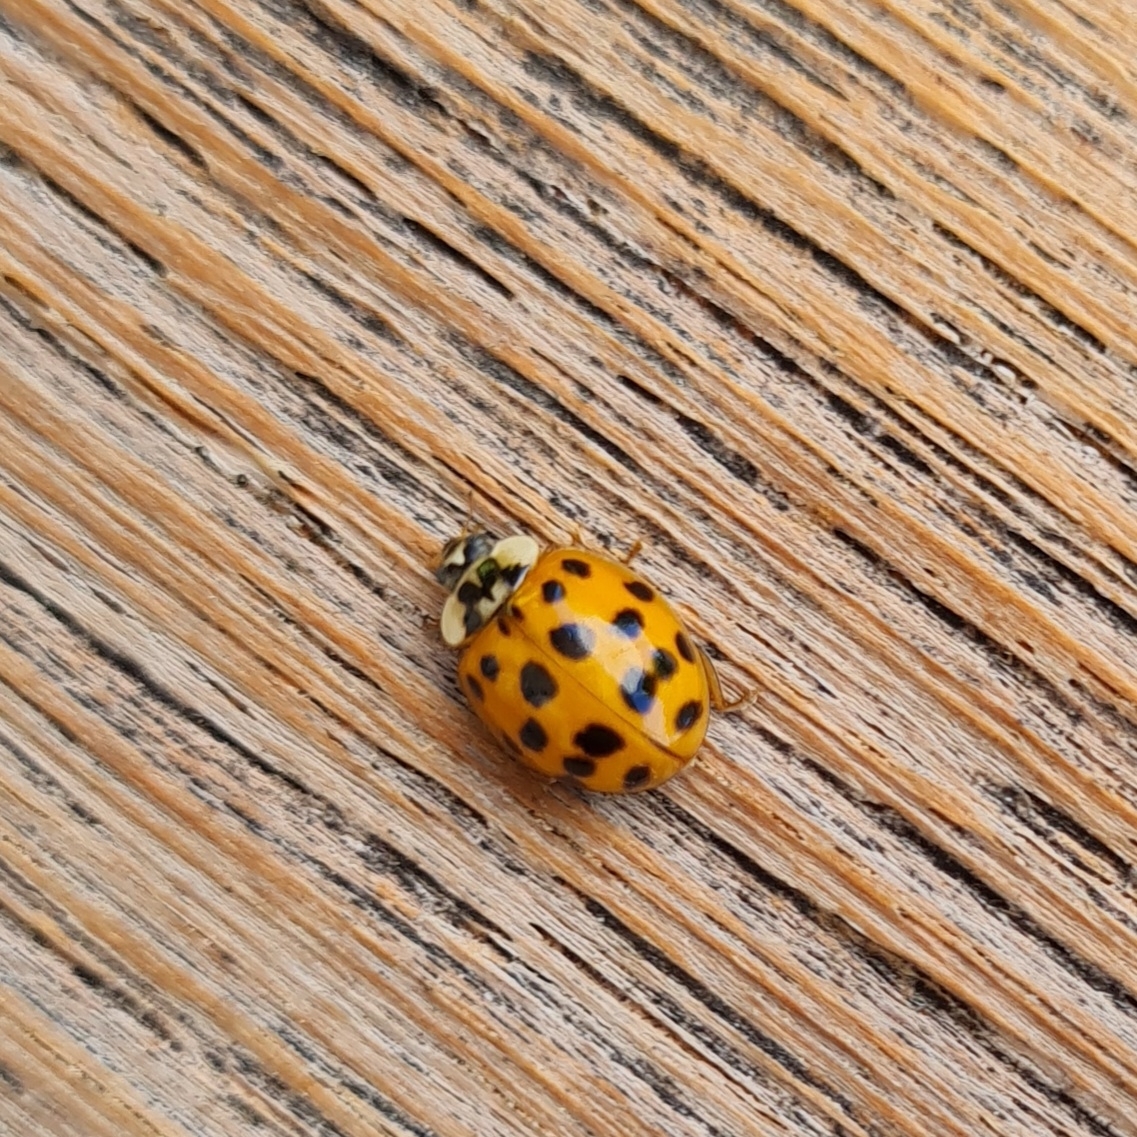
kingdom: Animalia
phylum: Arthropoda
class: Insecta
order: Coleoptera
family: Coccinellidae
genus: Harmonia
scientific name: Harmonia axyridis
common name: Harlequin ladybird
